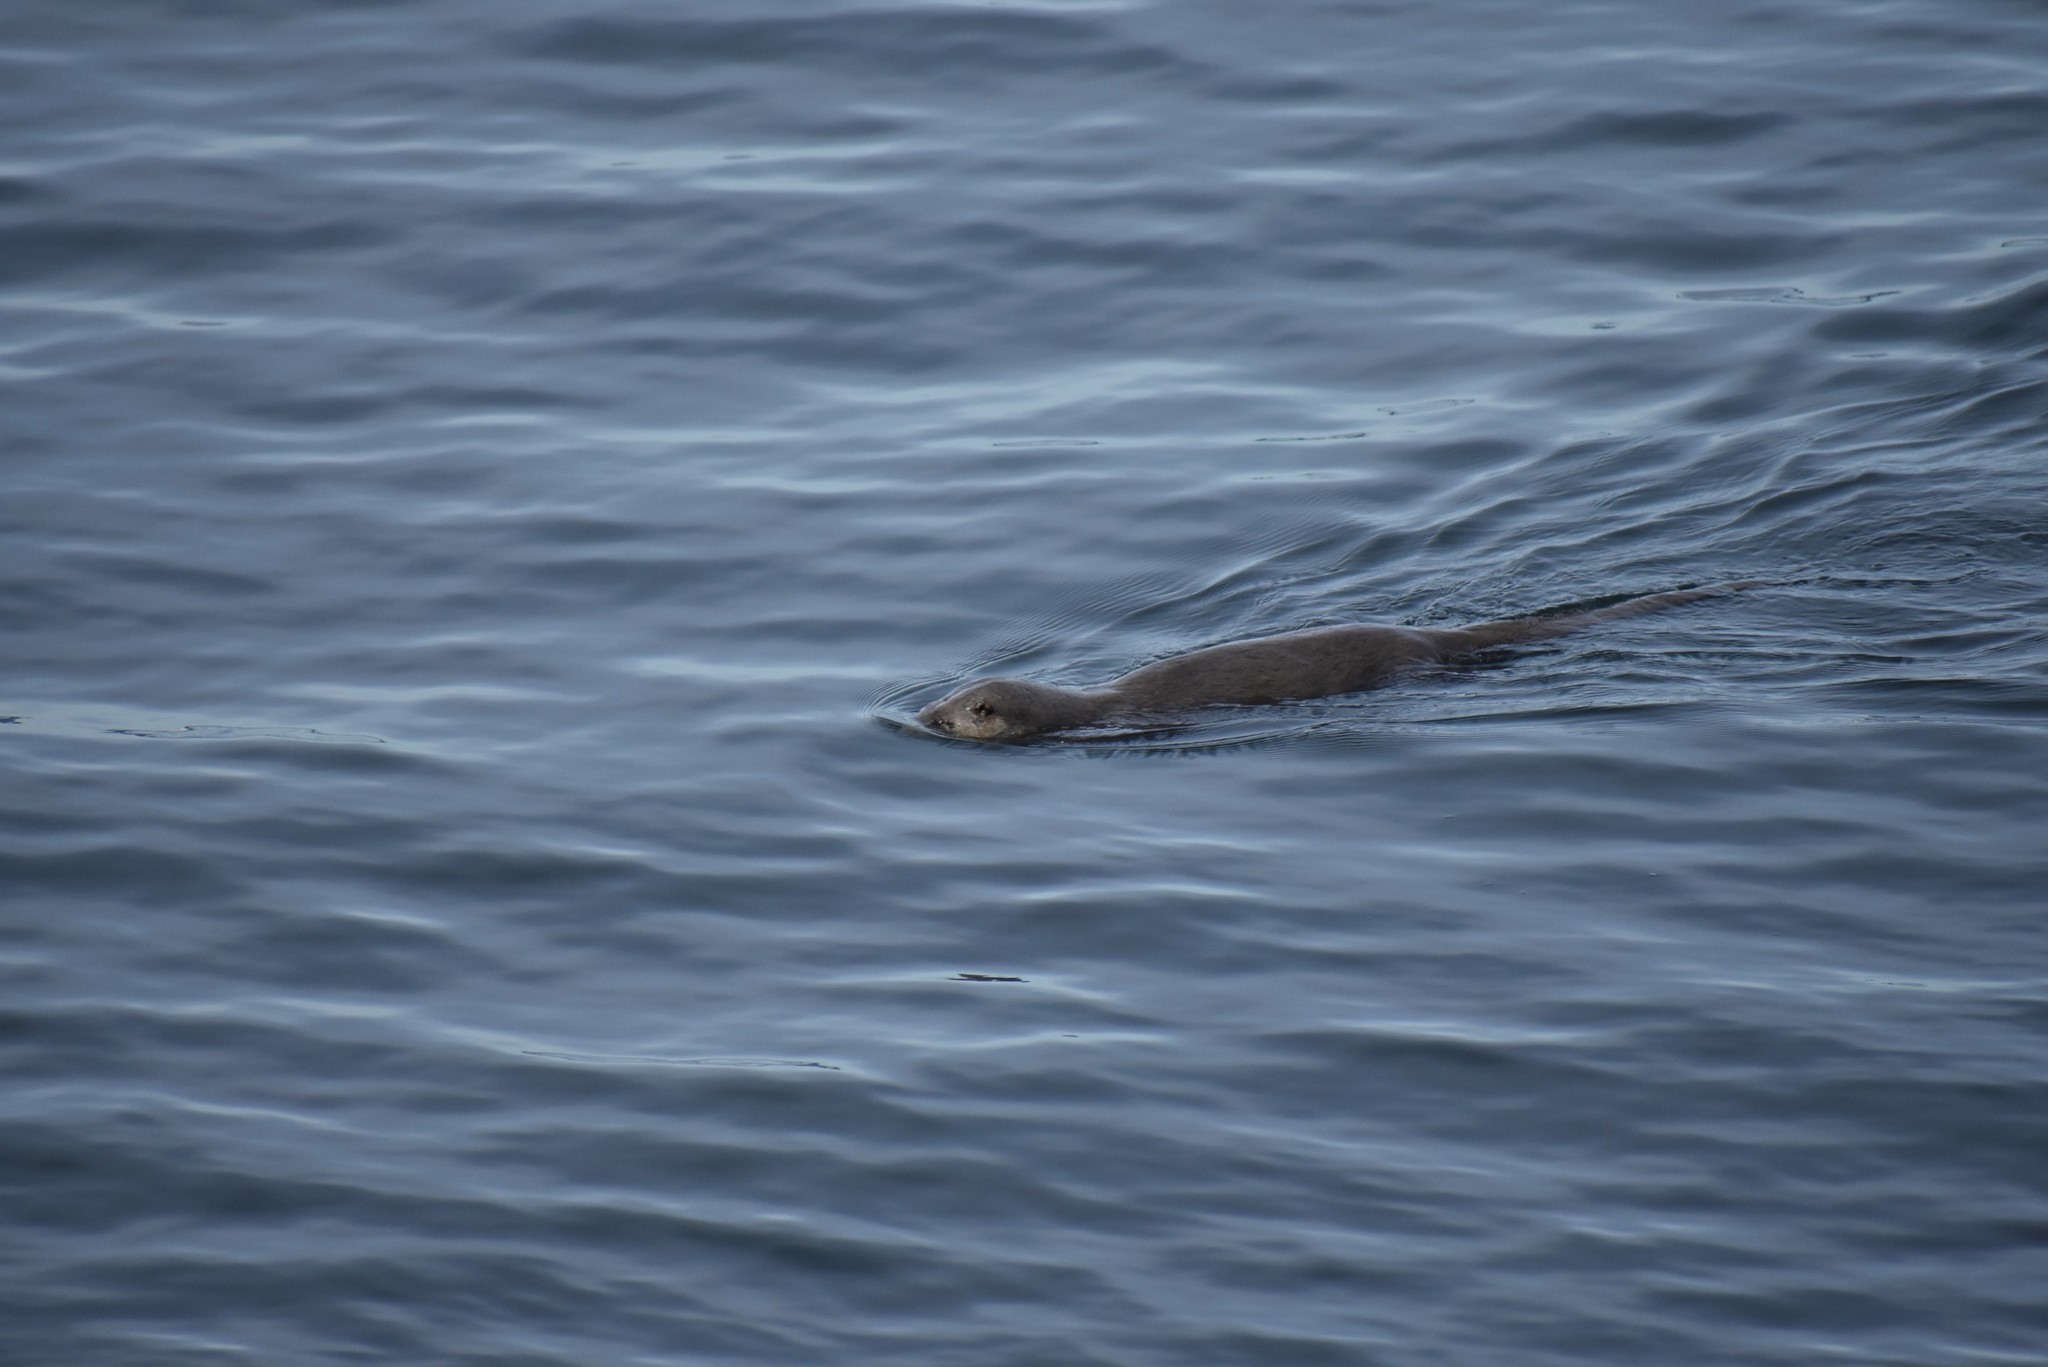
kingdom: Animalia
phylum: Chordata
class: Mammalia
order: Carnivora
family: Mustelidae
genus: Lontra
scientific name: Lontra canadensis
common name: North american river otter
